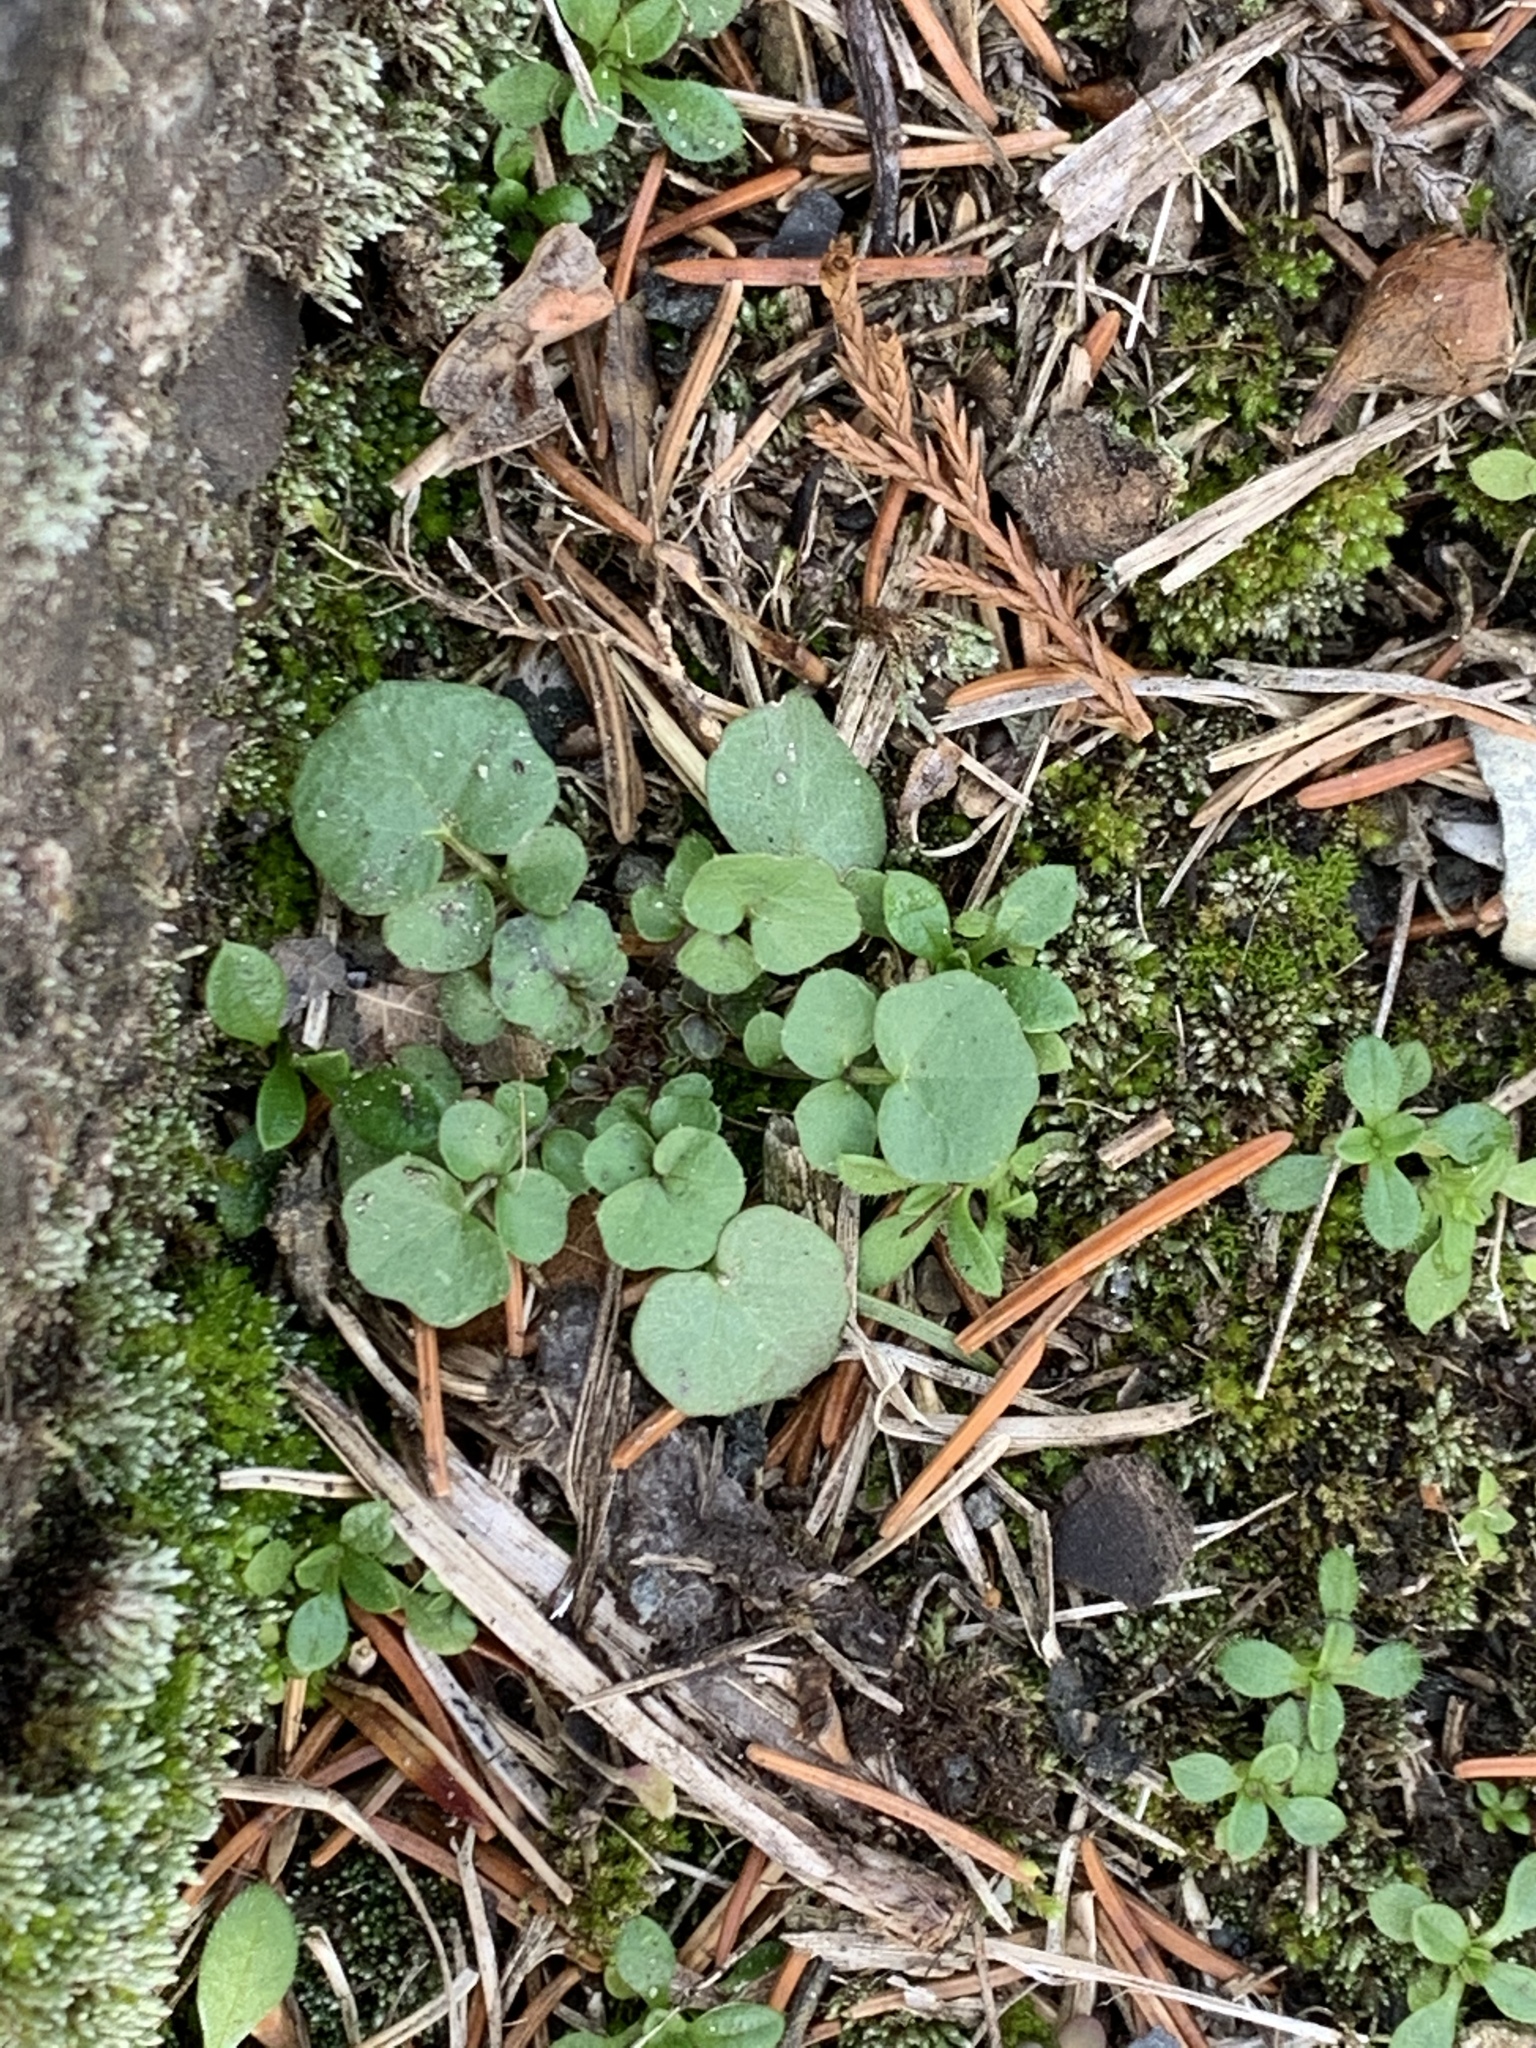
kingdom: Plantae
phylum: Tracheophyta
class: Magnoliopsida
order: Brassicales
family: Brassicaceae
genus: Cardamine
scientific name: Cardamine hirsuta
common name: Hairy bittercress
